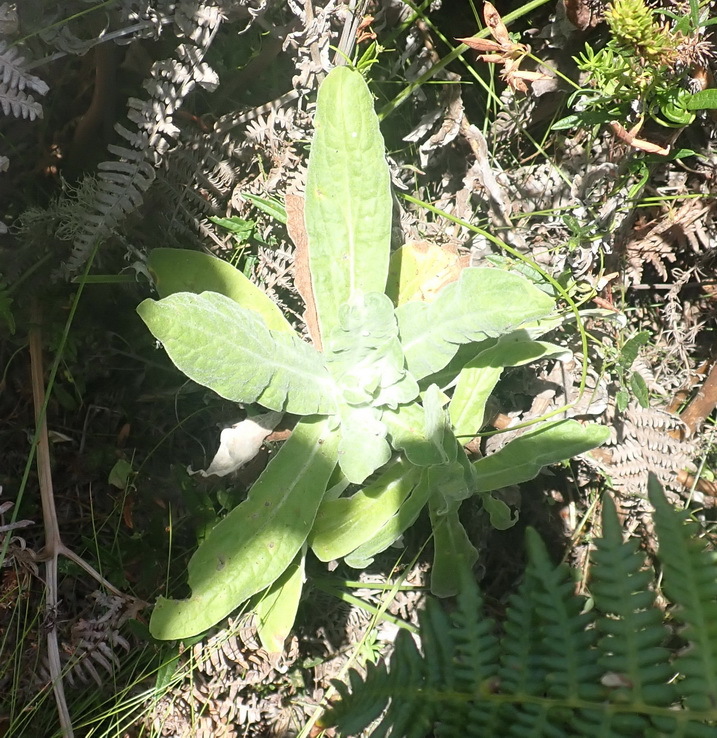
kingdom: Plantae
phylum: Tracheophyta
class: Magnoliopsida
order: Asterales
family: Asteraceae
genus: Helichrysum
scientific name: Helichrysum foetidum
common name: Stinking everlasting
